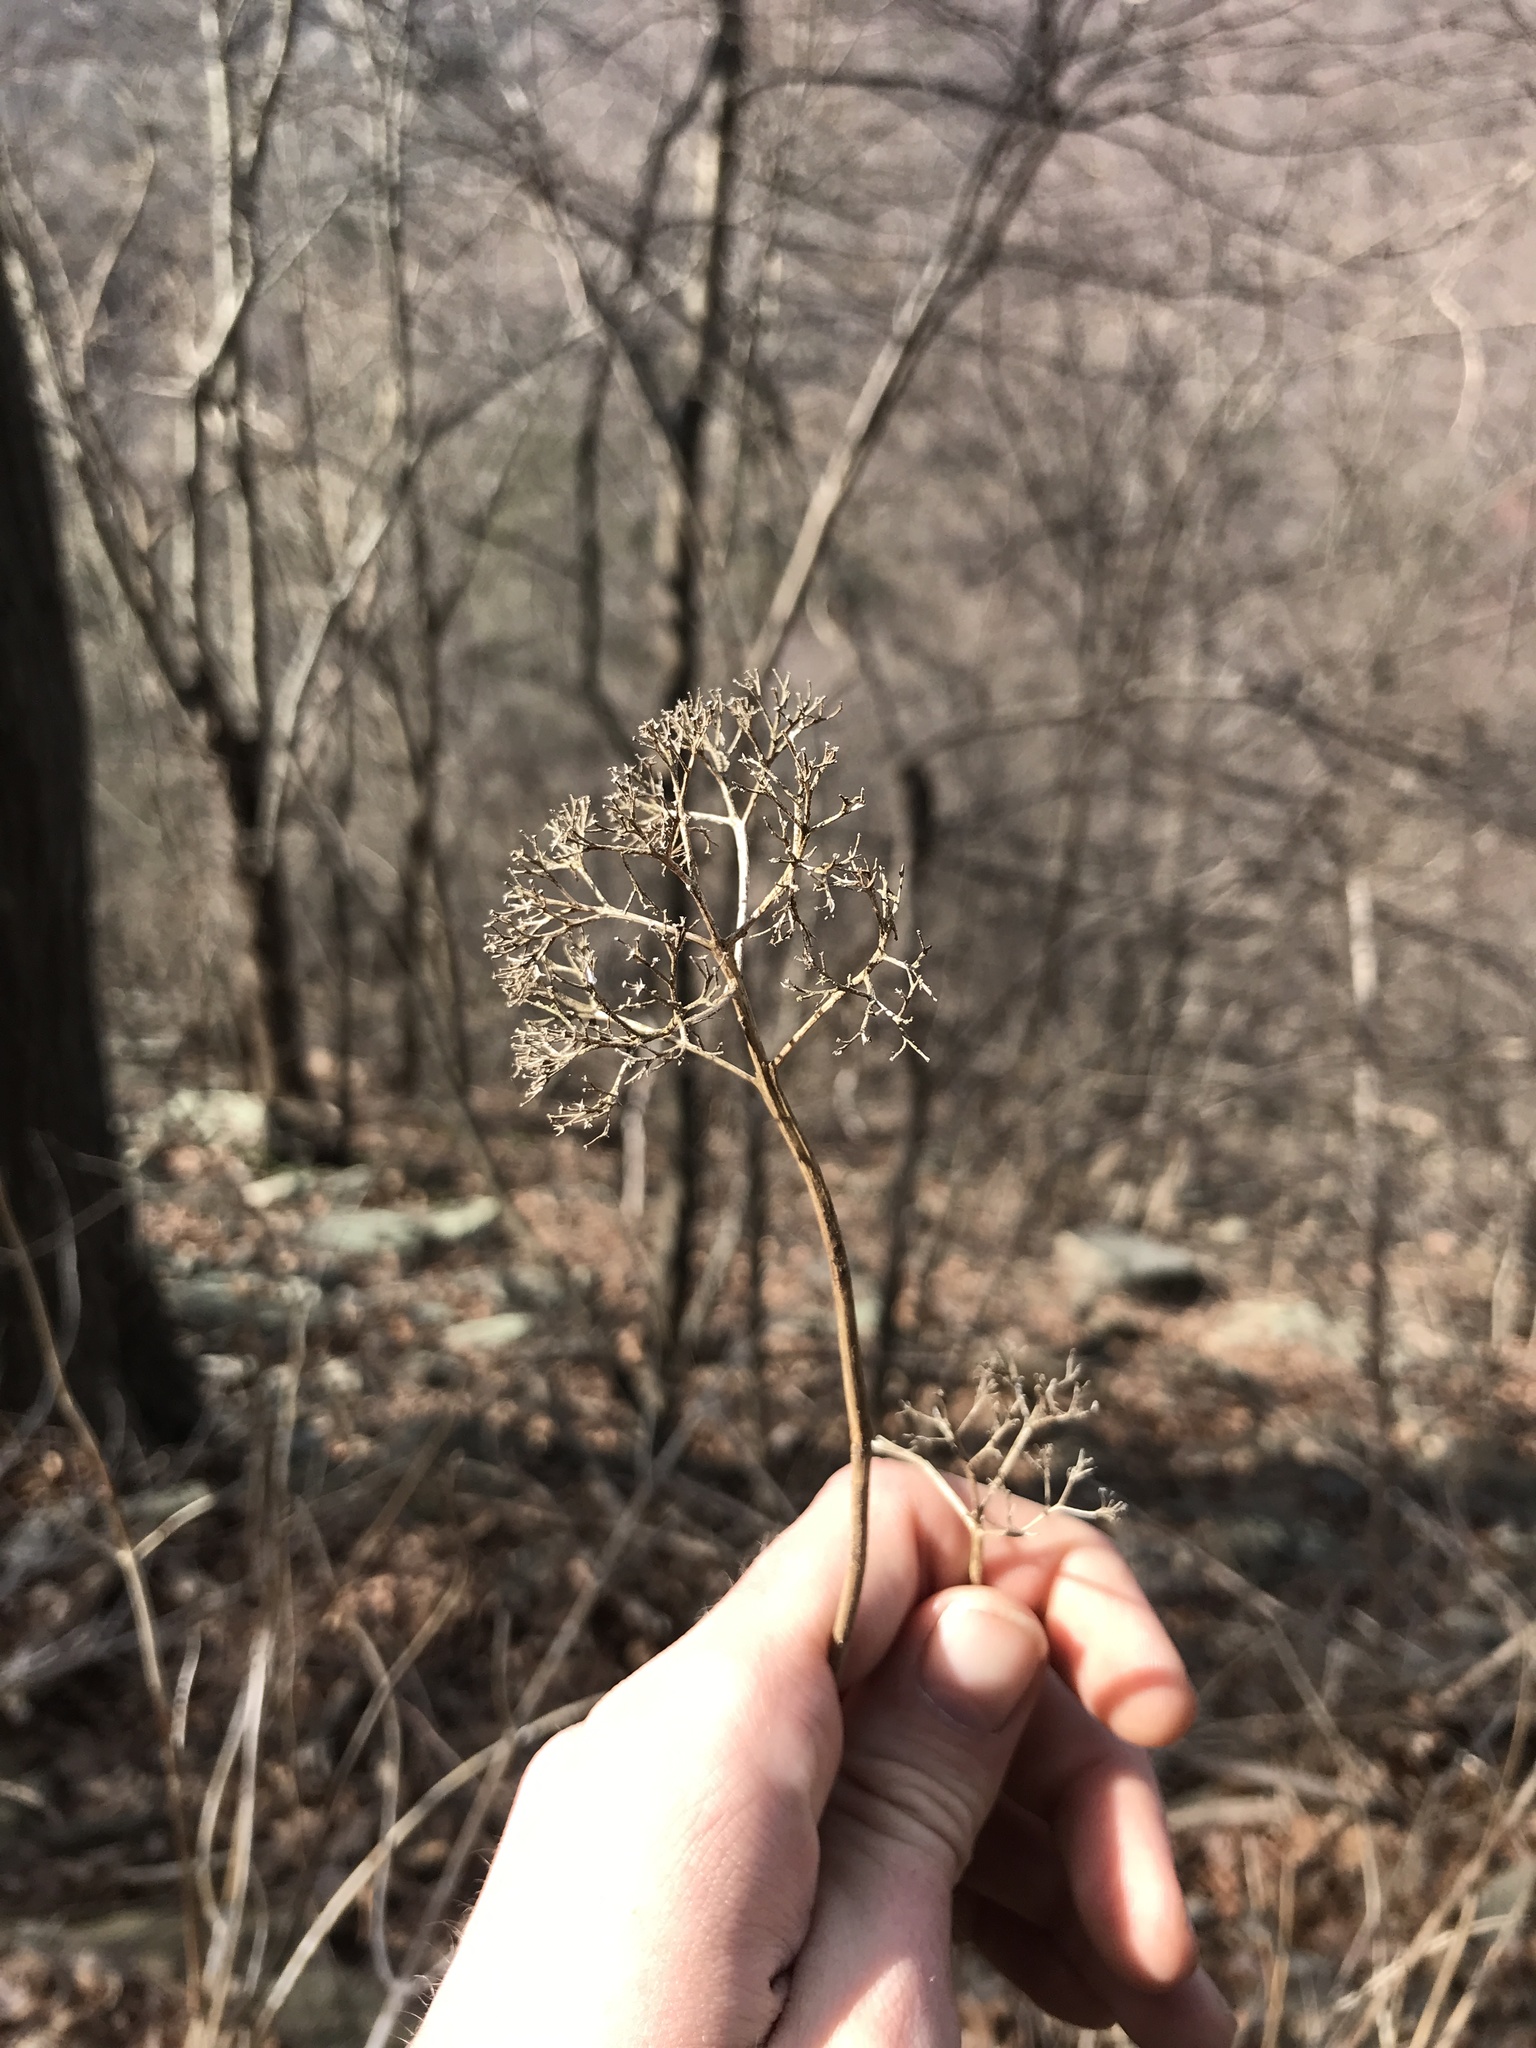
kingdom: Plantae
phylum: Tracheophyta
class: Magnoliopsida
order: Cornales
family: Hydrangeaceae
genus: Hydrangea
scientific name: Hydrangea arborescens
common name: Sevenbark
